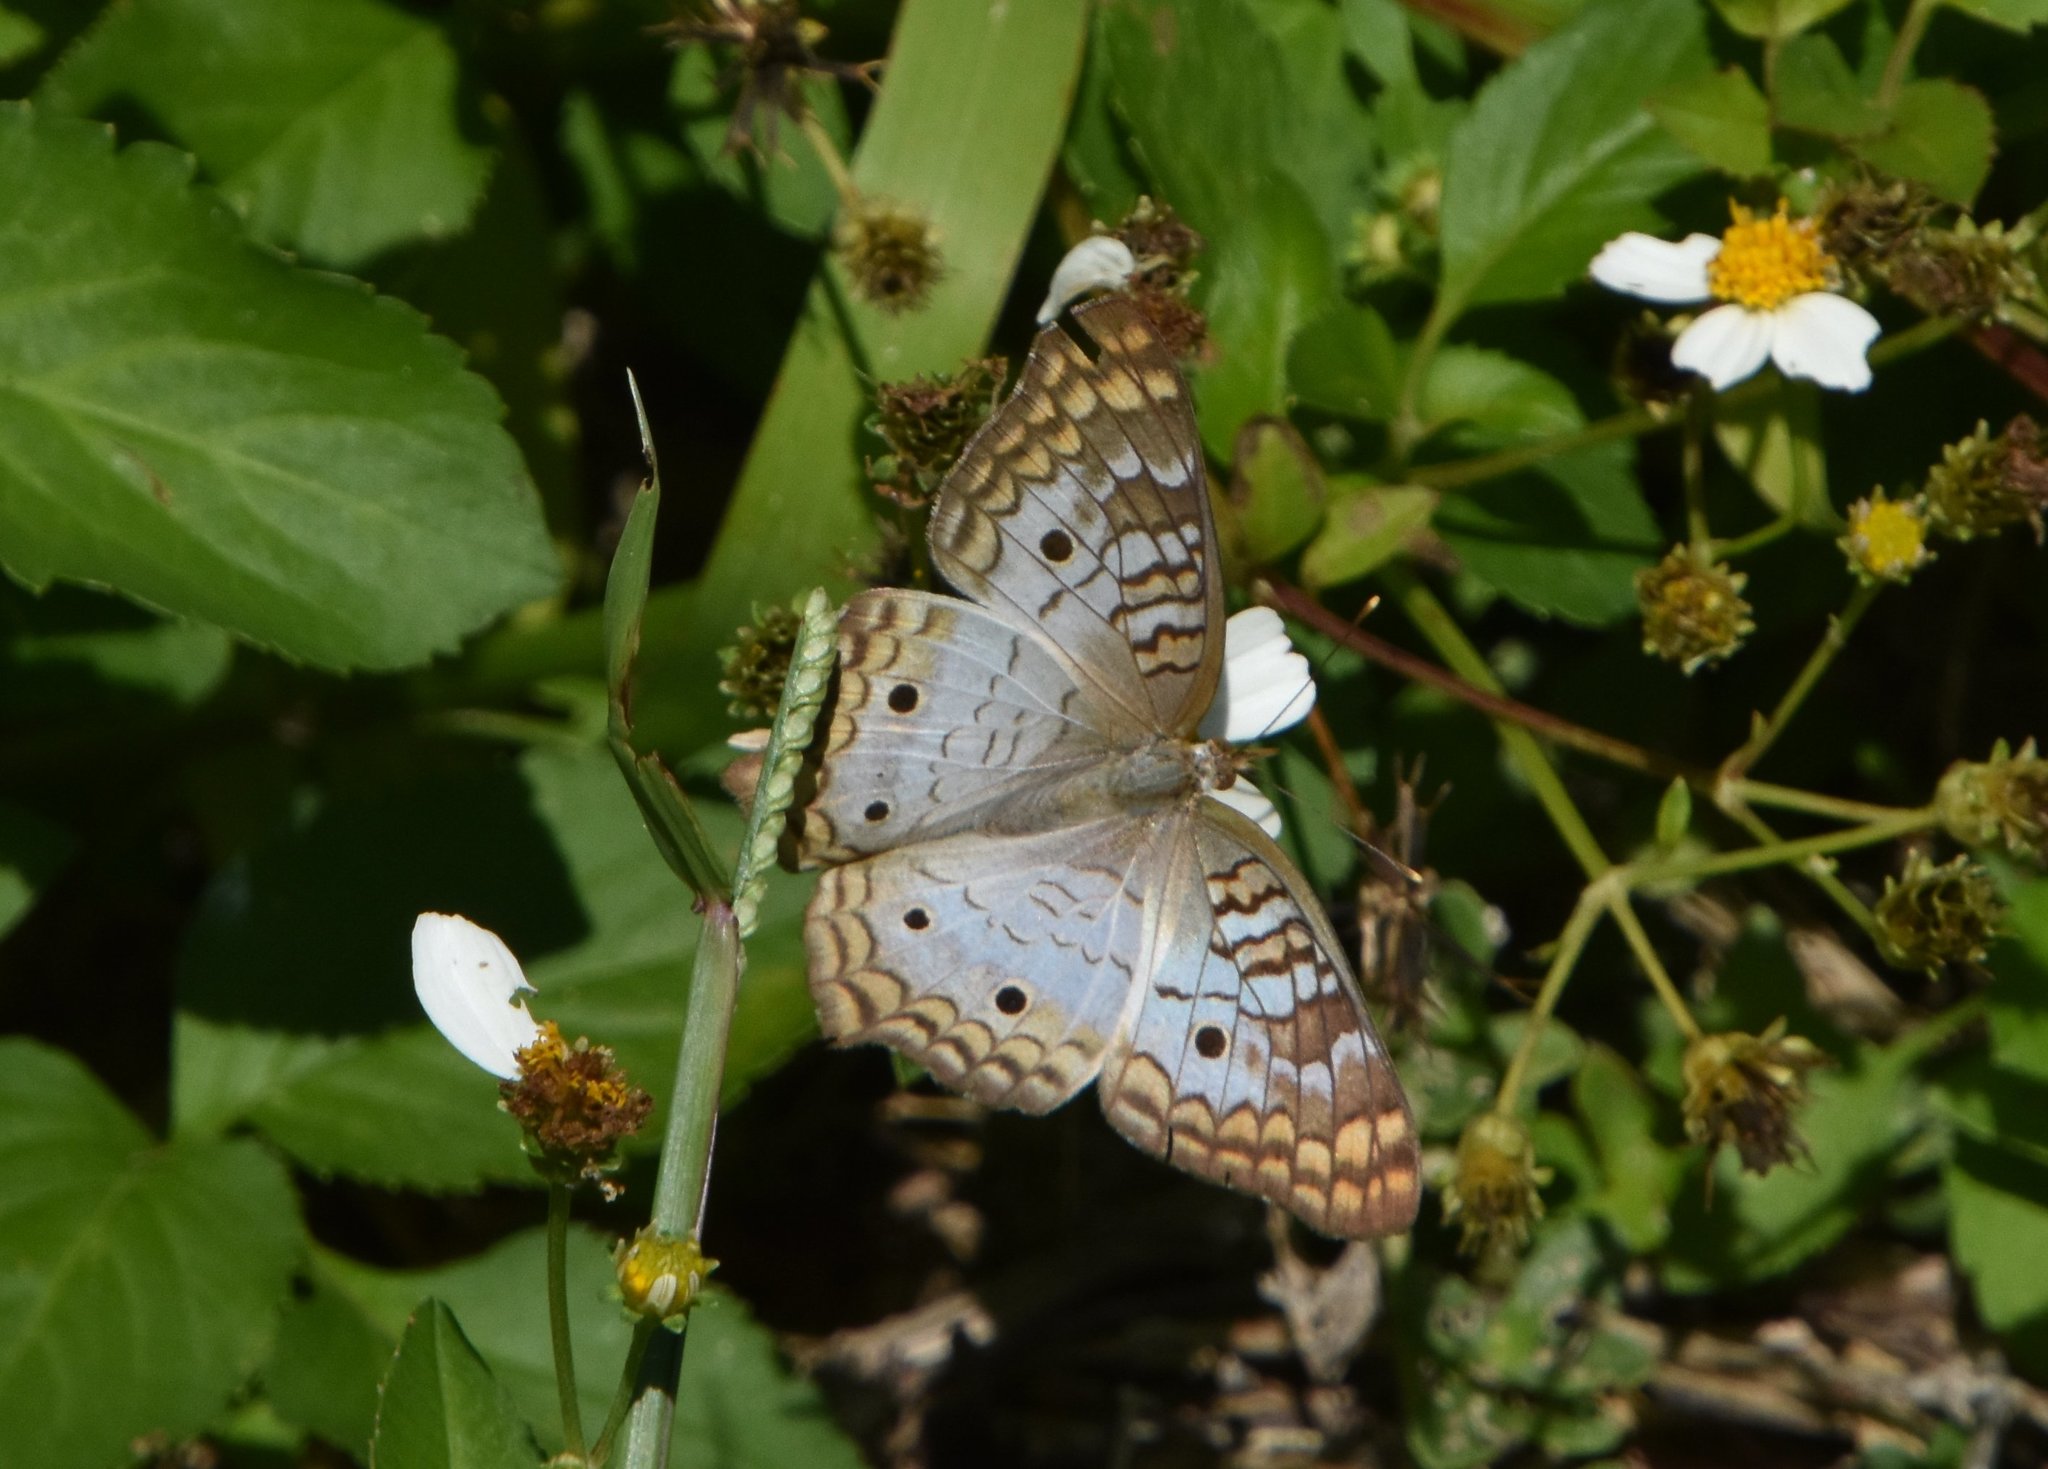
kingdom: Animalia
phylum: Arthropoda
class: Insecta
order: Lepidoptera
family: Nymphalidae
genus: Anartia
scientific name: Anartia jatrophae
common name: White peacock
